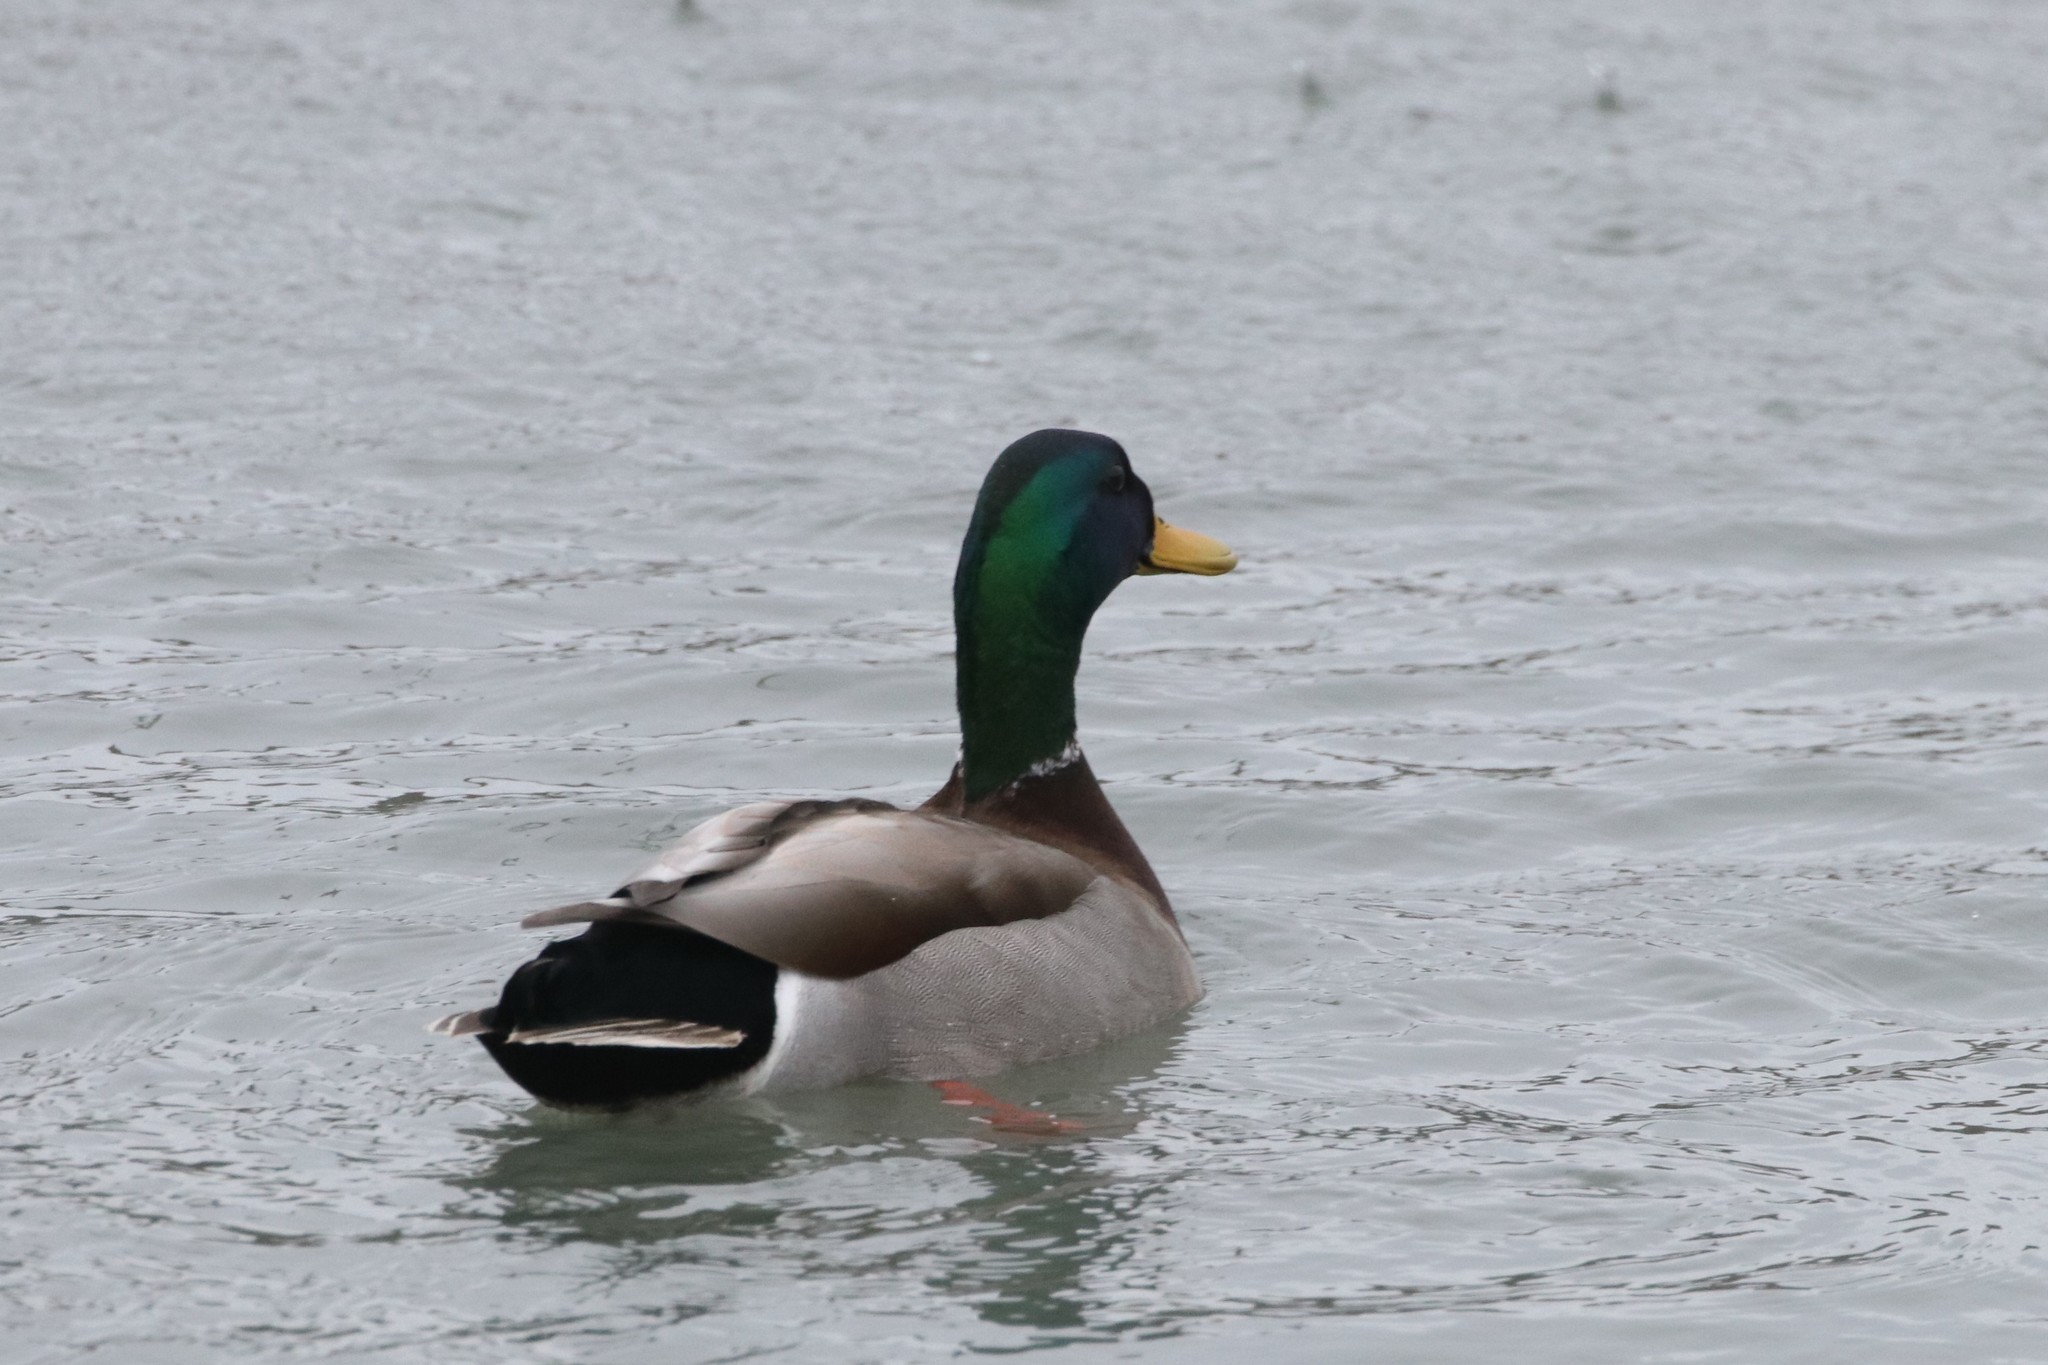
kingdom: Animalia
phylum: Chordata
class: Aves
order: Anseriformes
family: Anatidae
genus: Anas
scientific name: Anas platyrhynchos
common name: Mallard
